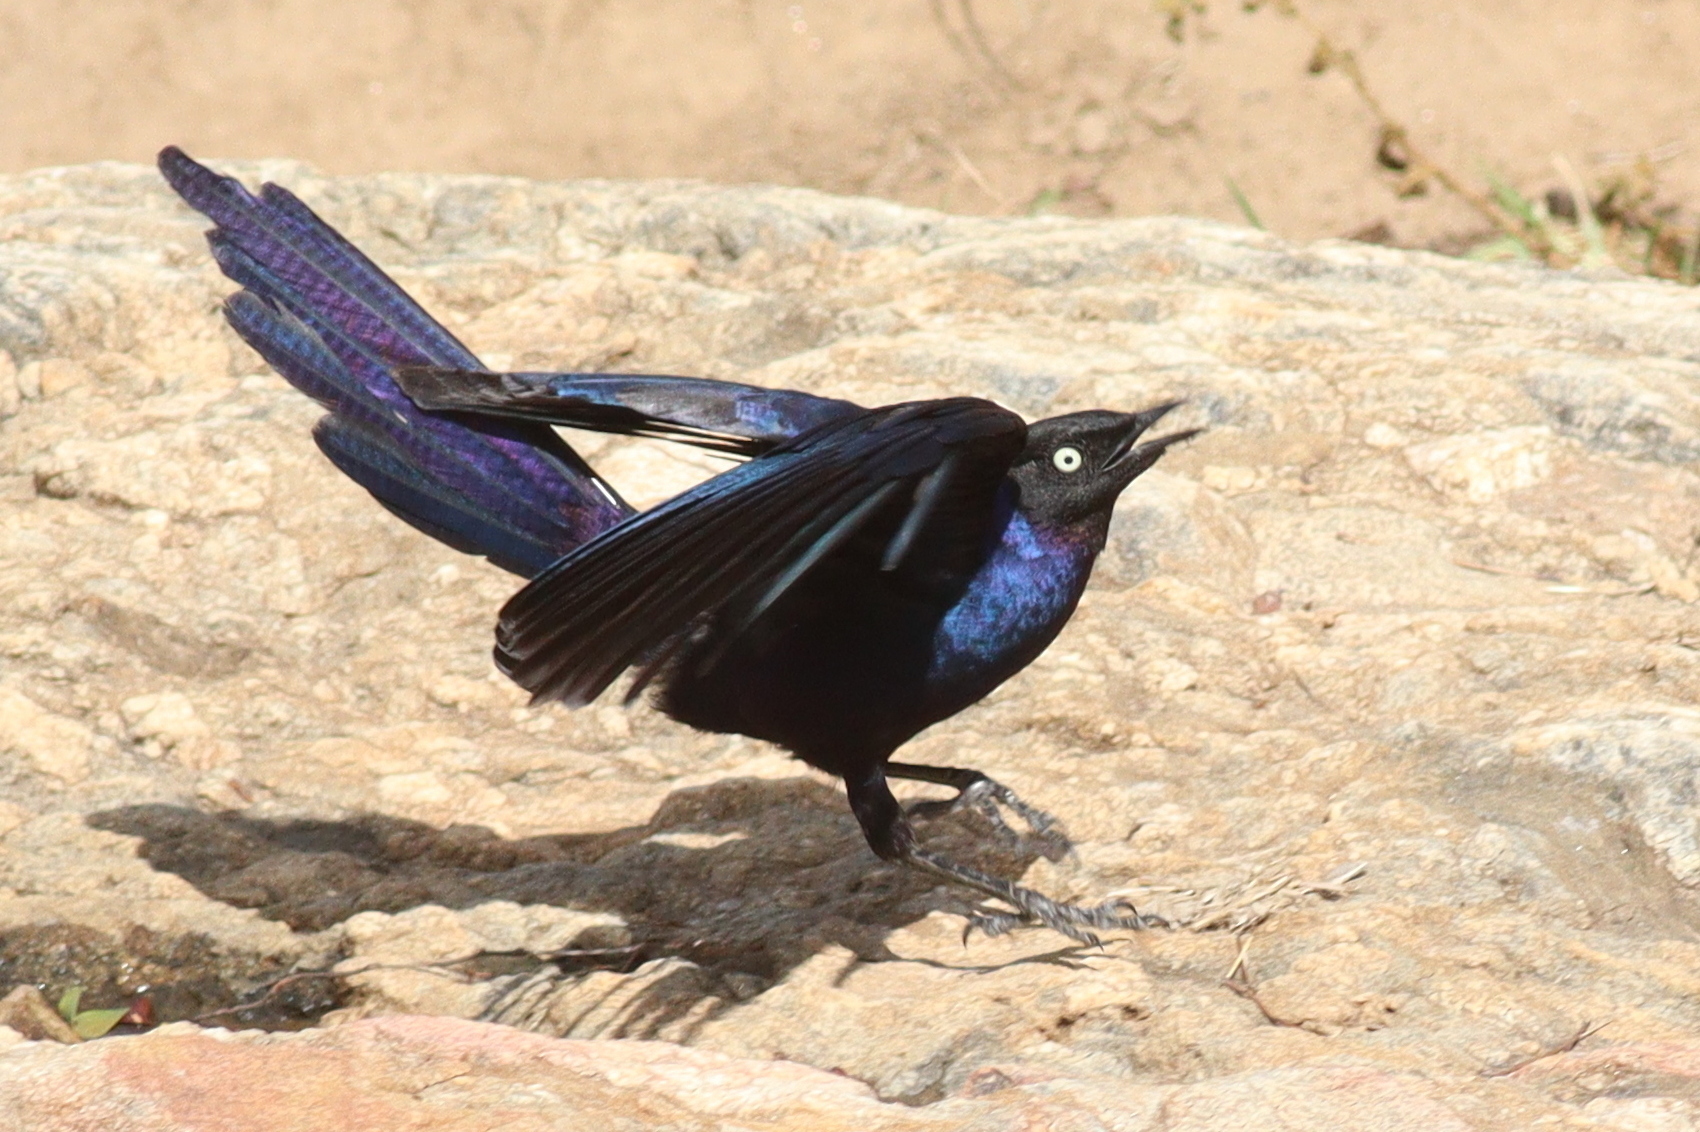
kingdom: Animalia
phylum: Chordata
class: Aves
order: Passeriformes
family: Sturnidae
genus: Lamprotornis
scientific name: Lamprotornis purpuroptera
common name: Rüppell's starling
